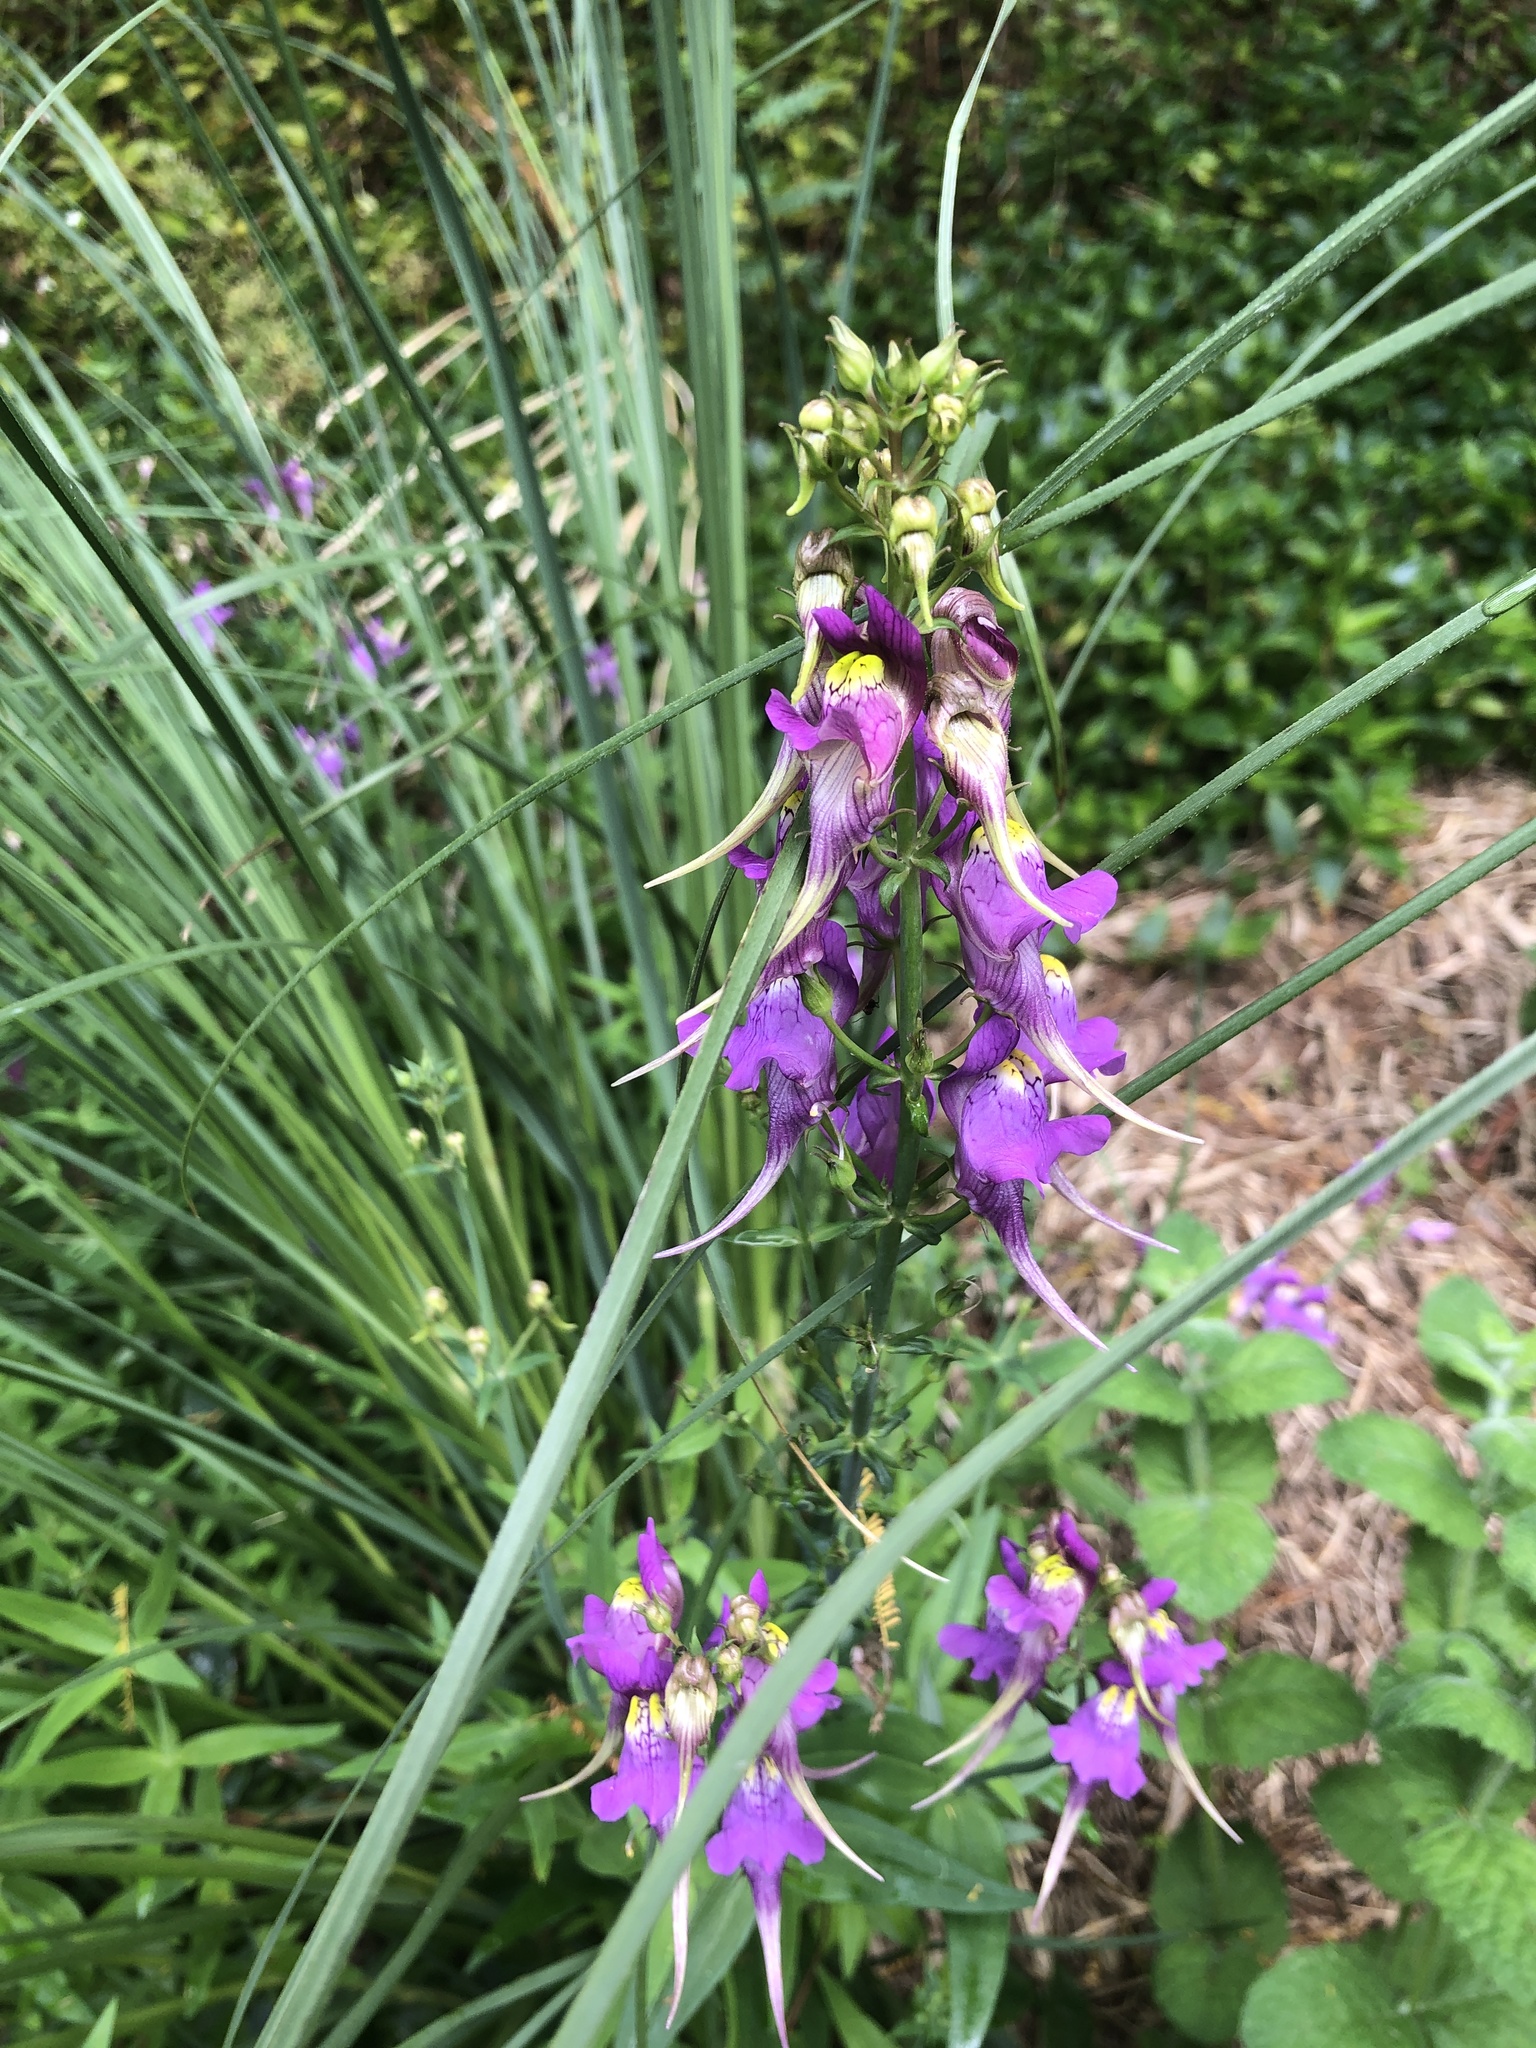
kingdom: Plantae
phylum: Tracheophyta
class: Magnoliopsida
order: Lamiales
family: Plantaginaceae
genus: Linaria
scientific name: Linaria triornithophora
